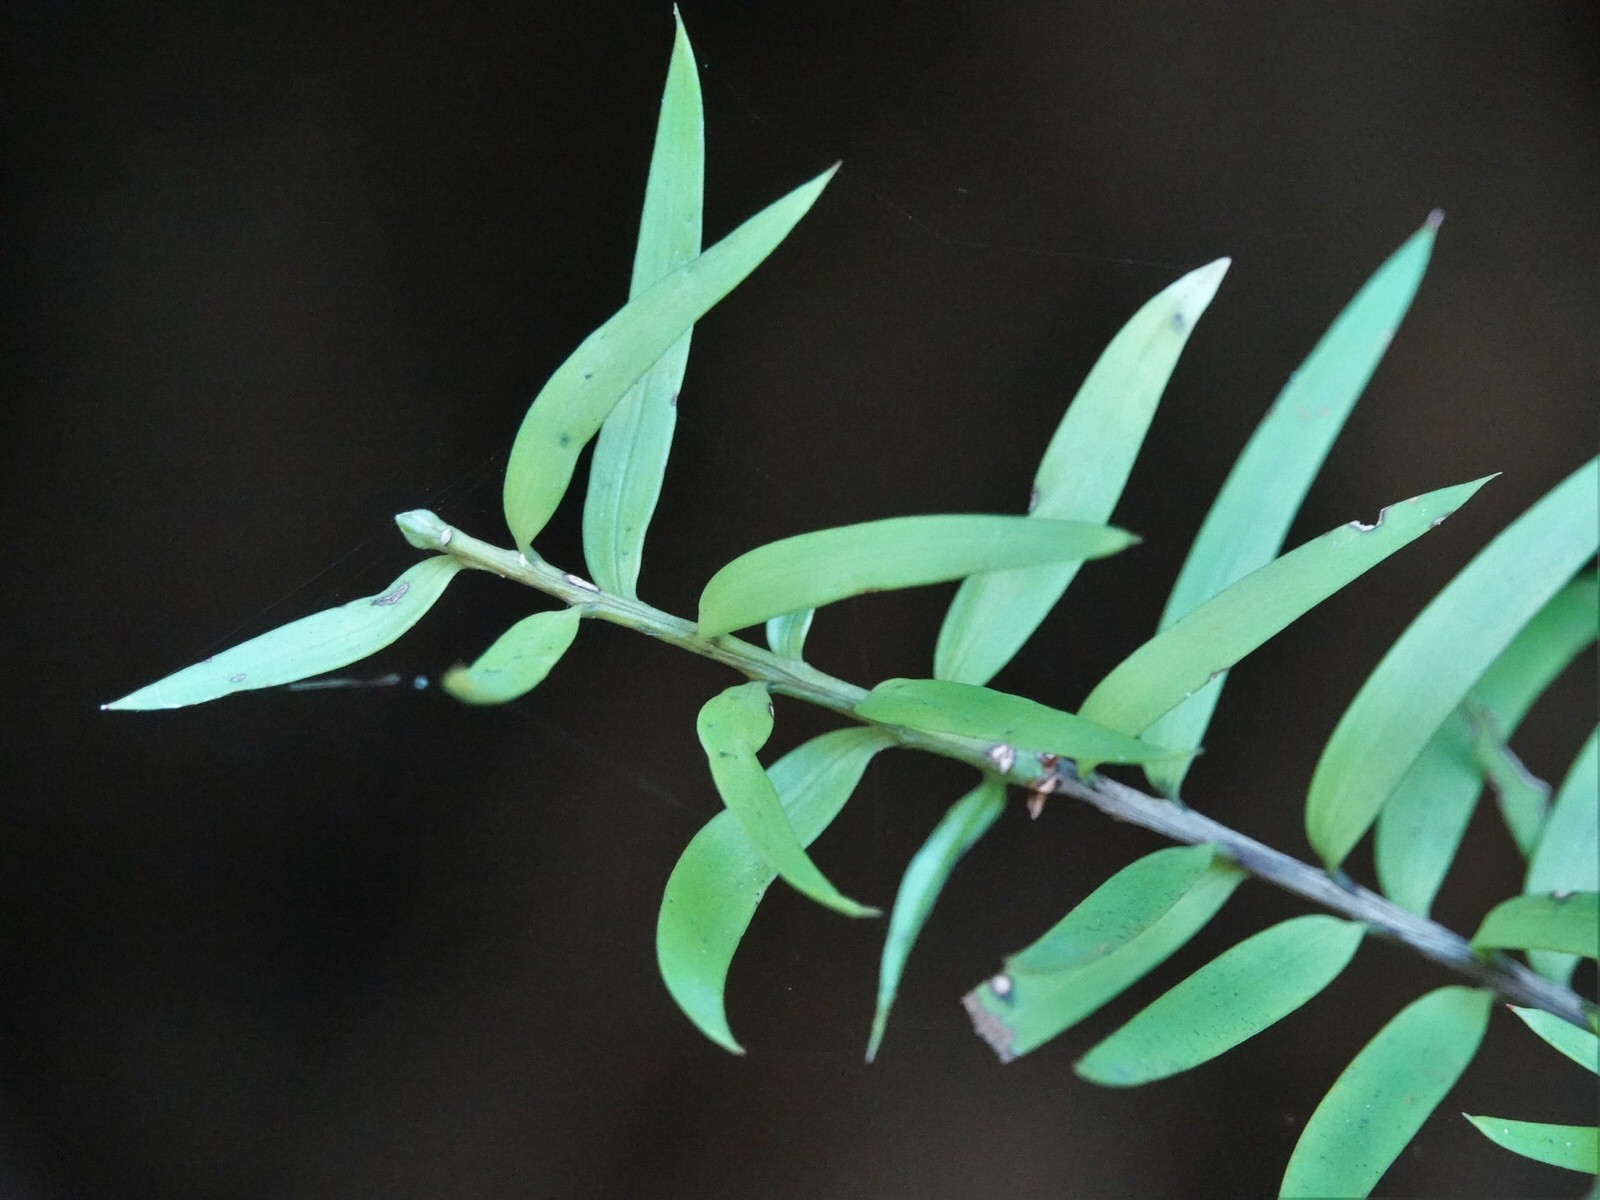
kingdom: Plantae
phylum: Tracheophyta
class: Pinopsida
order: Pinales
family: Podocarpaceae
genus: Podocarpus
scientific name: Podocarpus laetus
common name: Hall's totara
